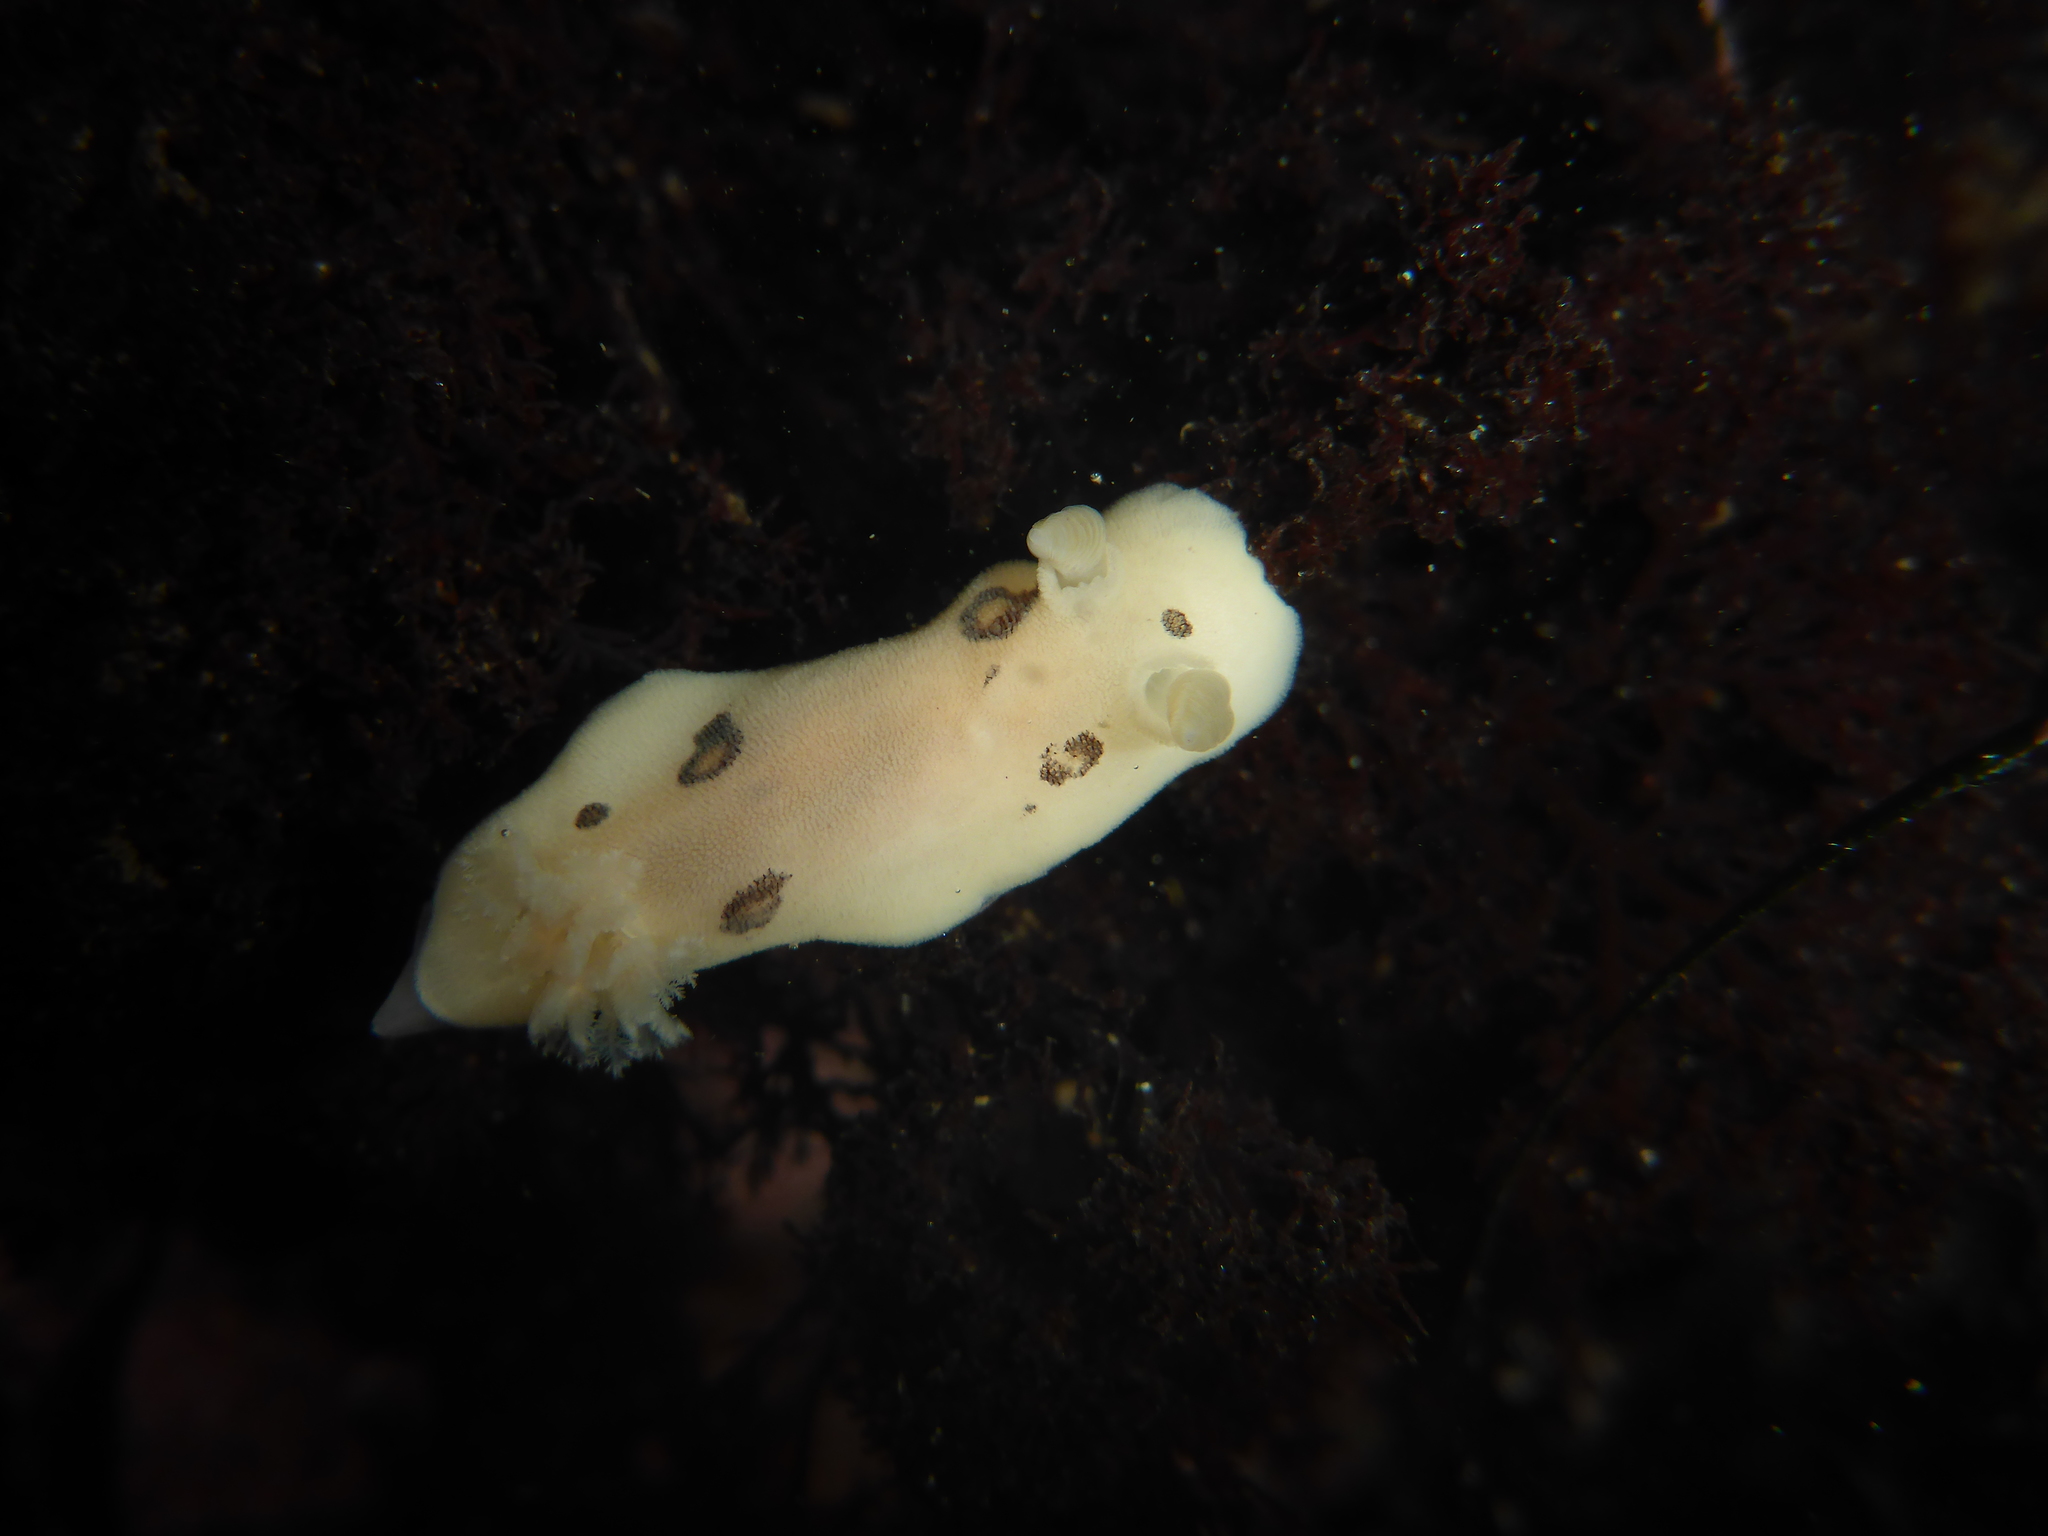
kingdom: Animalia
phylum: Mollusca
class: Gastropoda
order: Nudibranchia
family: Discodorididae
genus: Diaulula
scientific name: Diaulula sandiegensis
